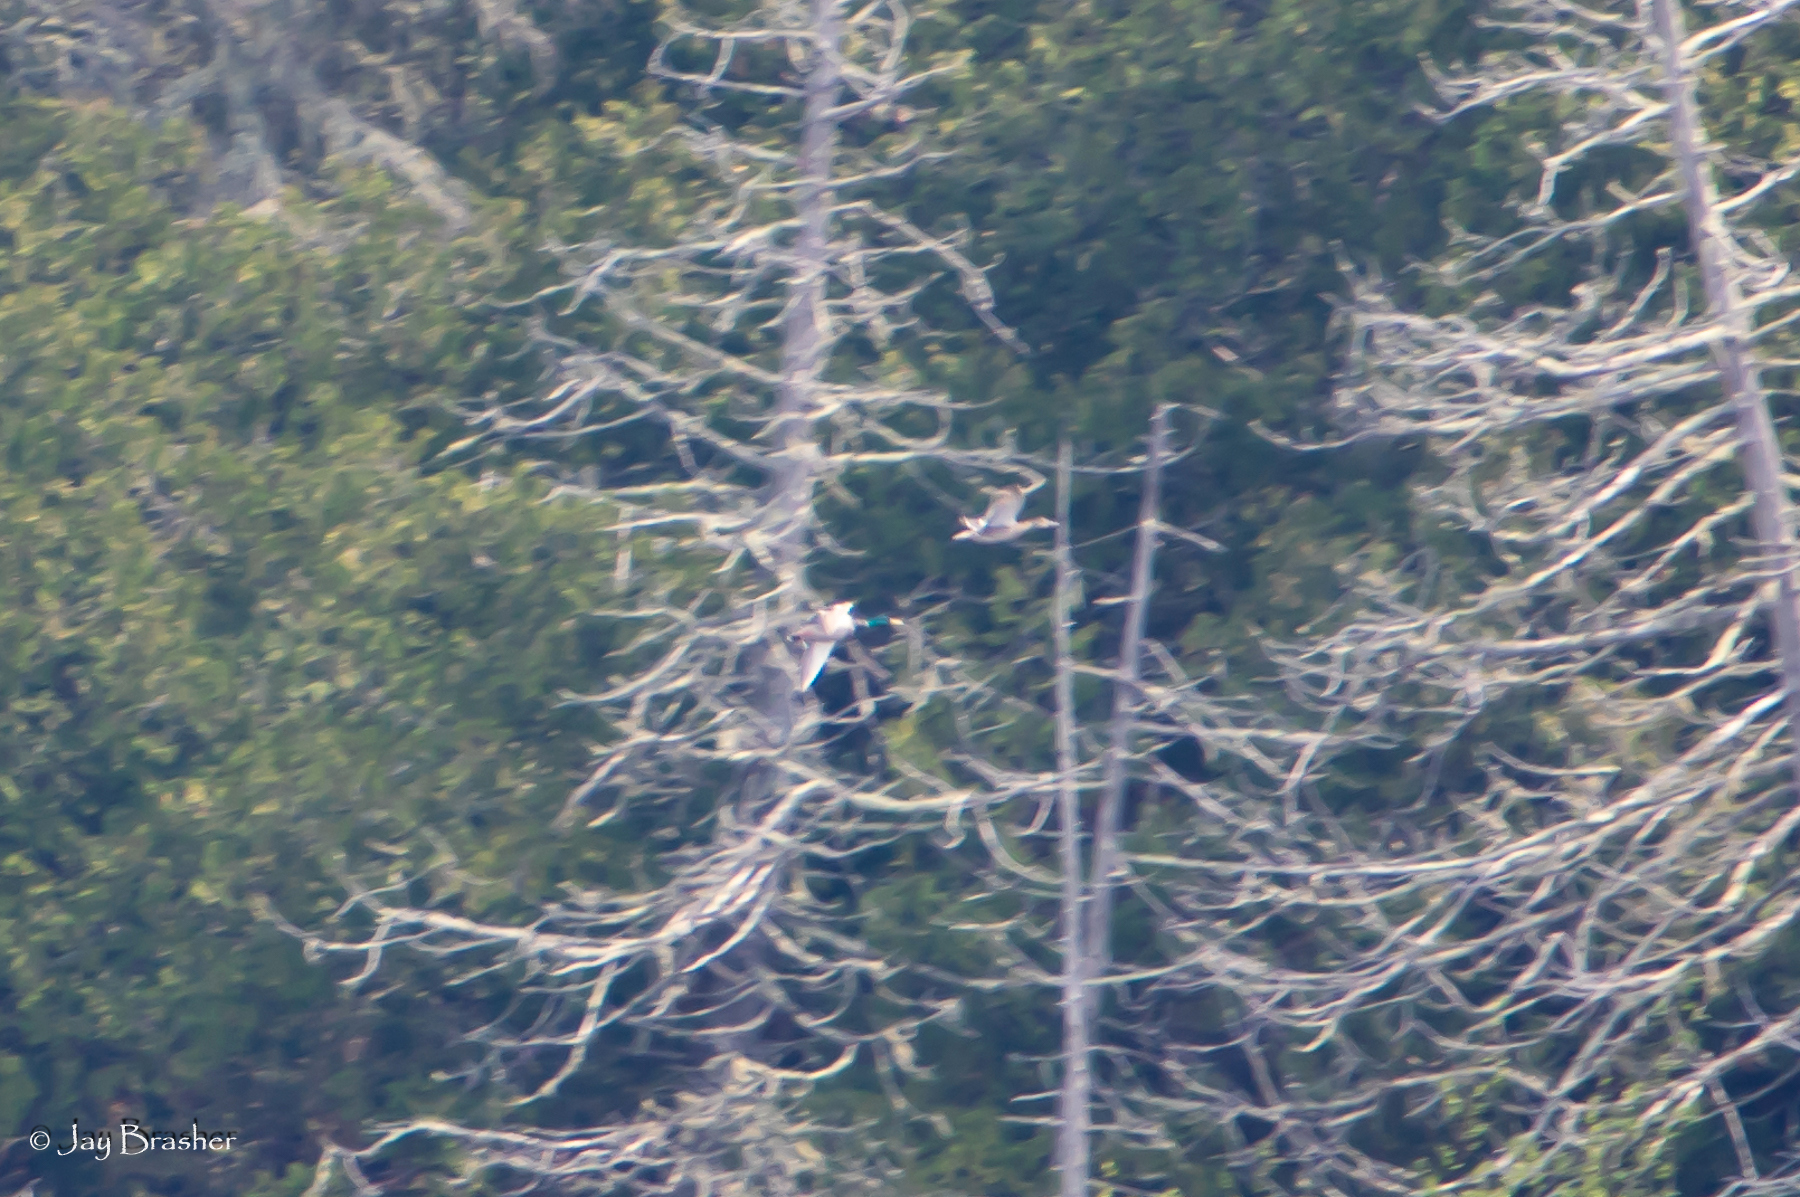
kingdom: Animalia
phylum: Chordata
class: Aves
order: Anseriformes
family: Anatidae
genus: Anas
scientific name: Anas platyrhynchos
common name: Mallard
